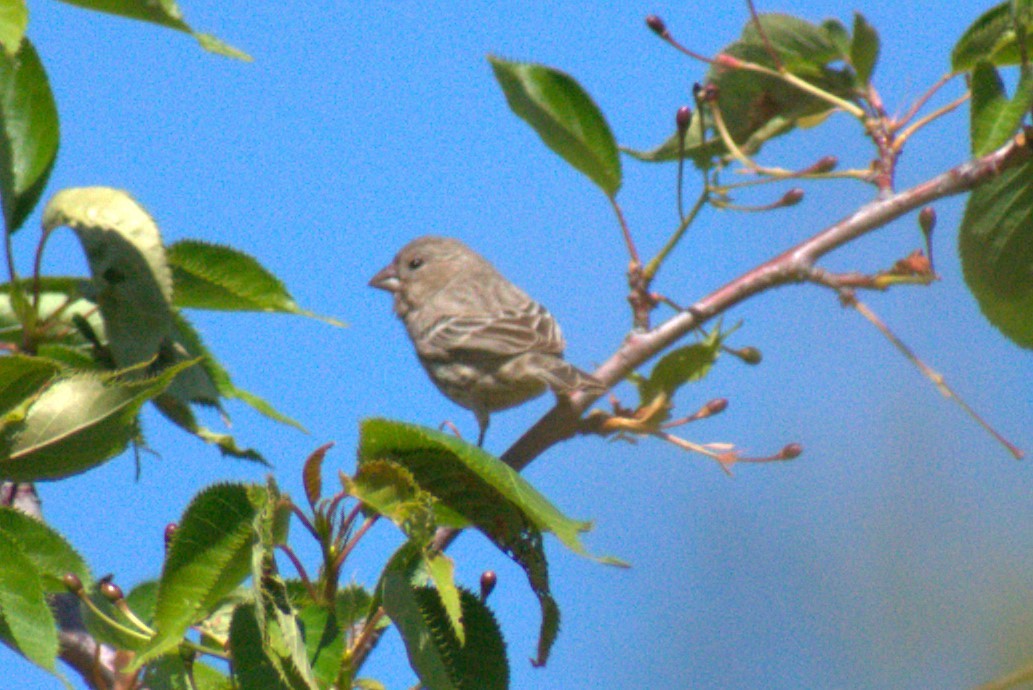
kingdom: Animalia
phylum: Chordata
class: Aves
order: Passeriformes
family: Fringillidae
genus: Haemorhous
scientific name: Haemorhous mexicanus
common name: House finch
